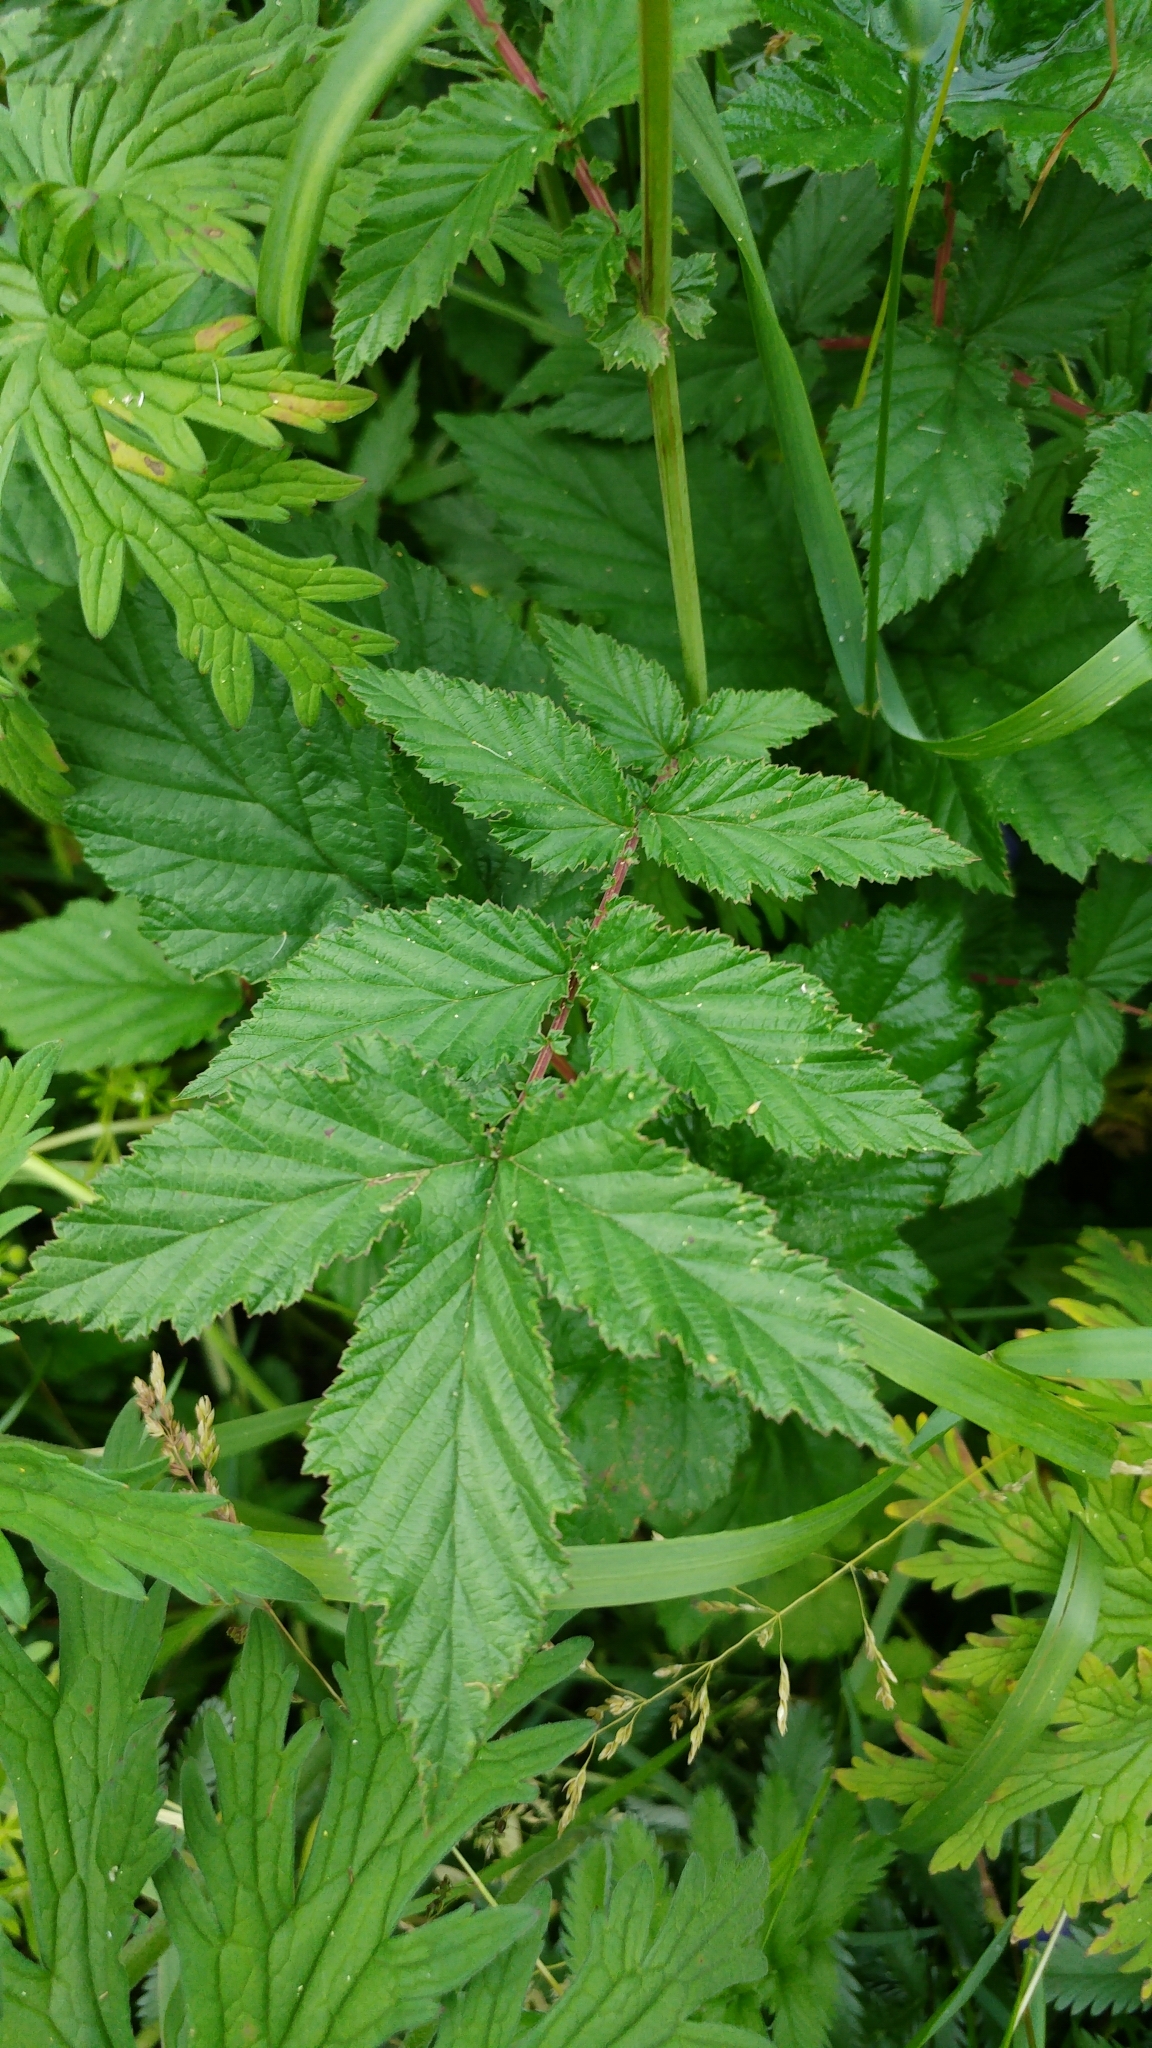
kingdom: Plantae
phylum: Tracheophyta
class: Magnoliopsida
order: Rosales
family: Rosaceae
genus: Filipendula
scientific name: Filipendula ulmaria
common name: Meadowsweet
